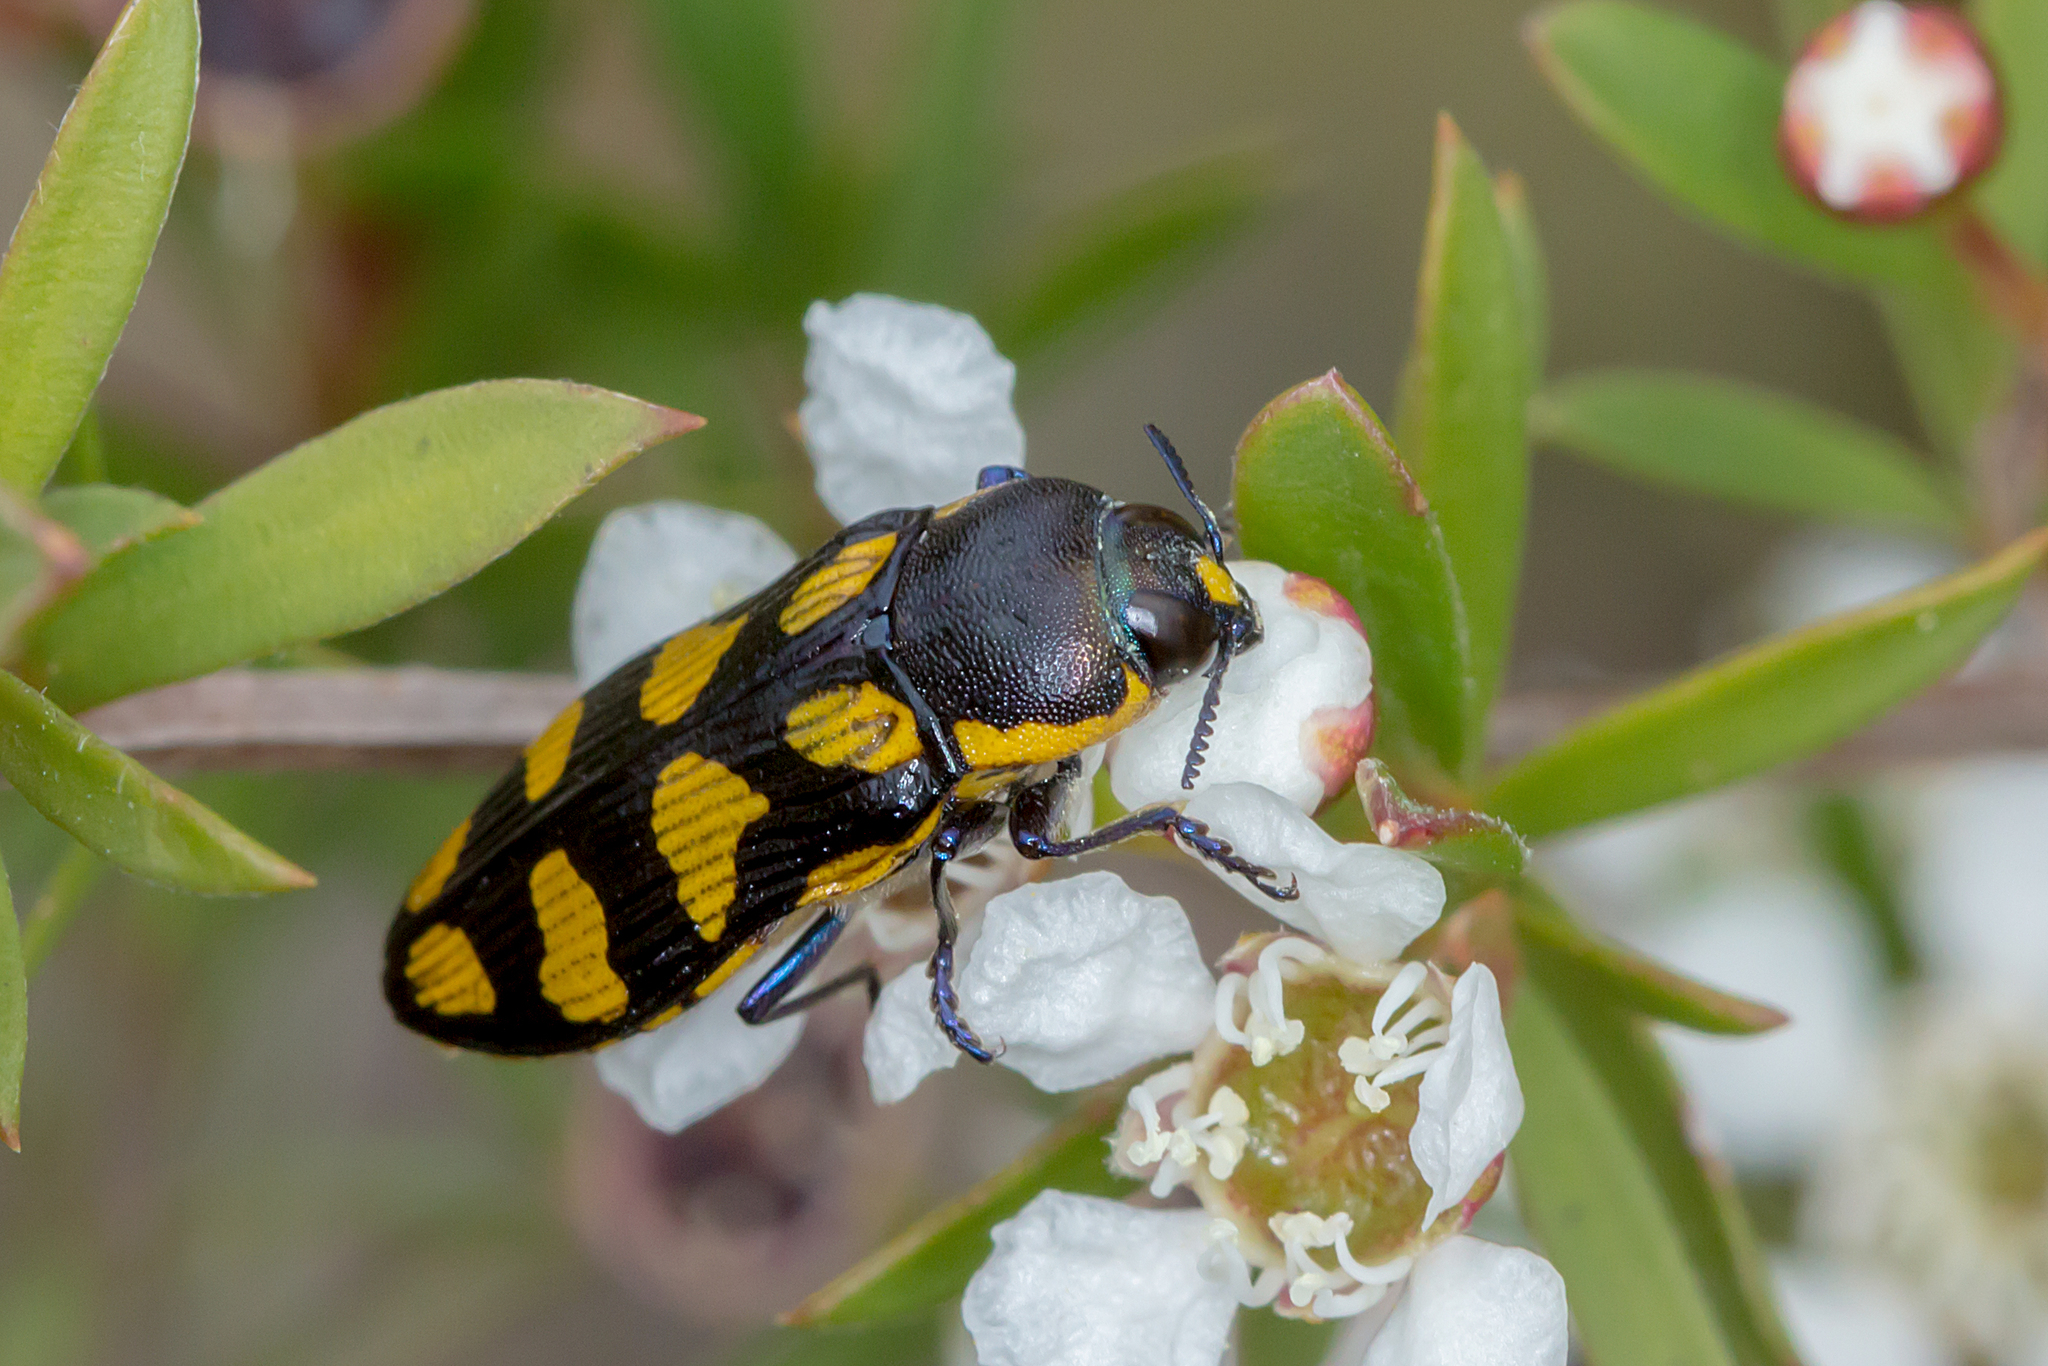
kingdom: Animalia
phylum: Arthropoda
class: Insecta
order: Coleoptera
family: Buprestidae
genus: Castiarina
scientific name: Castiarina octospilota
